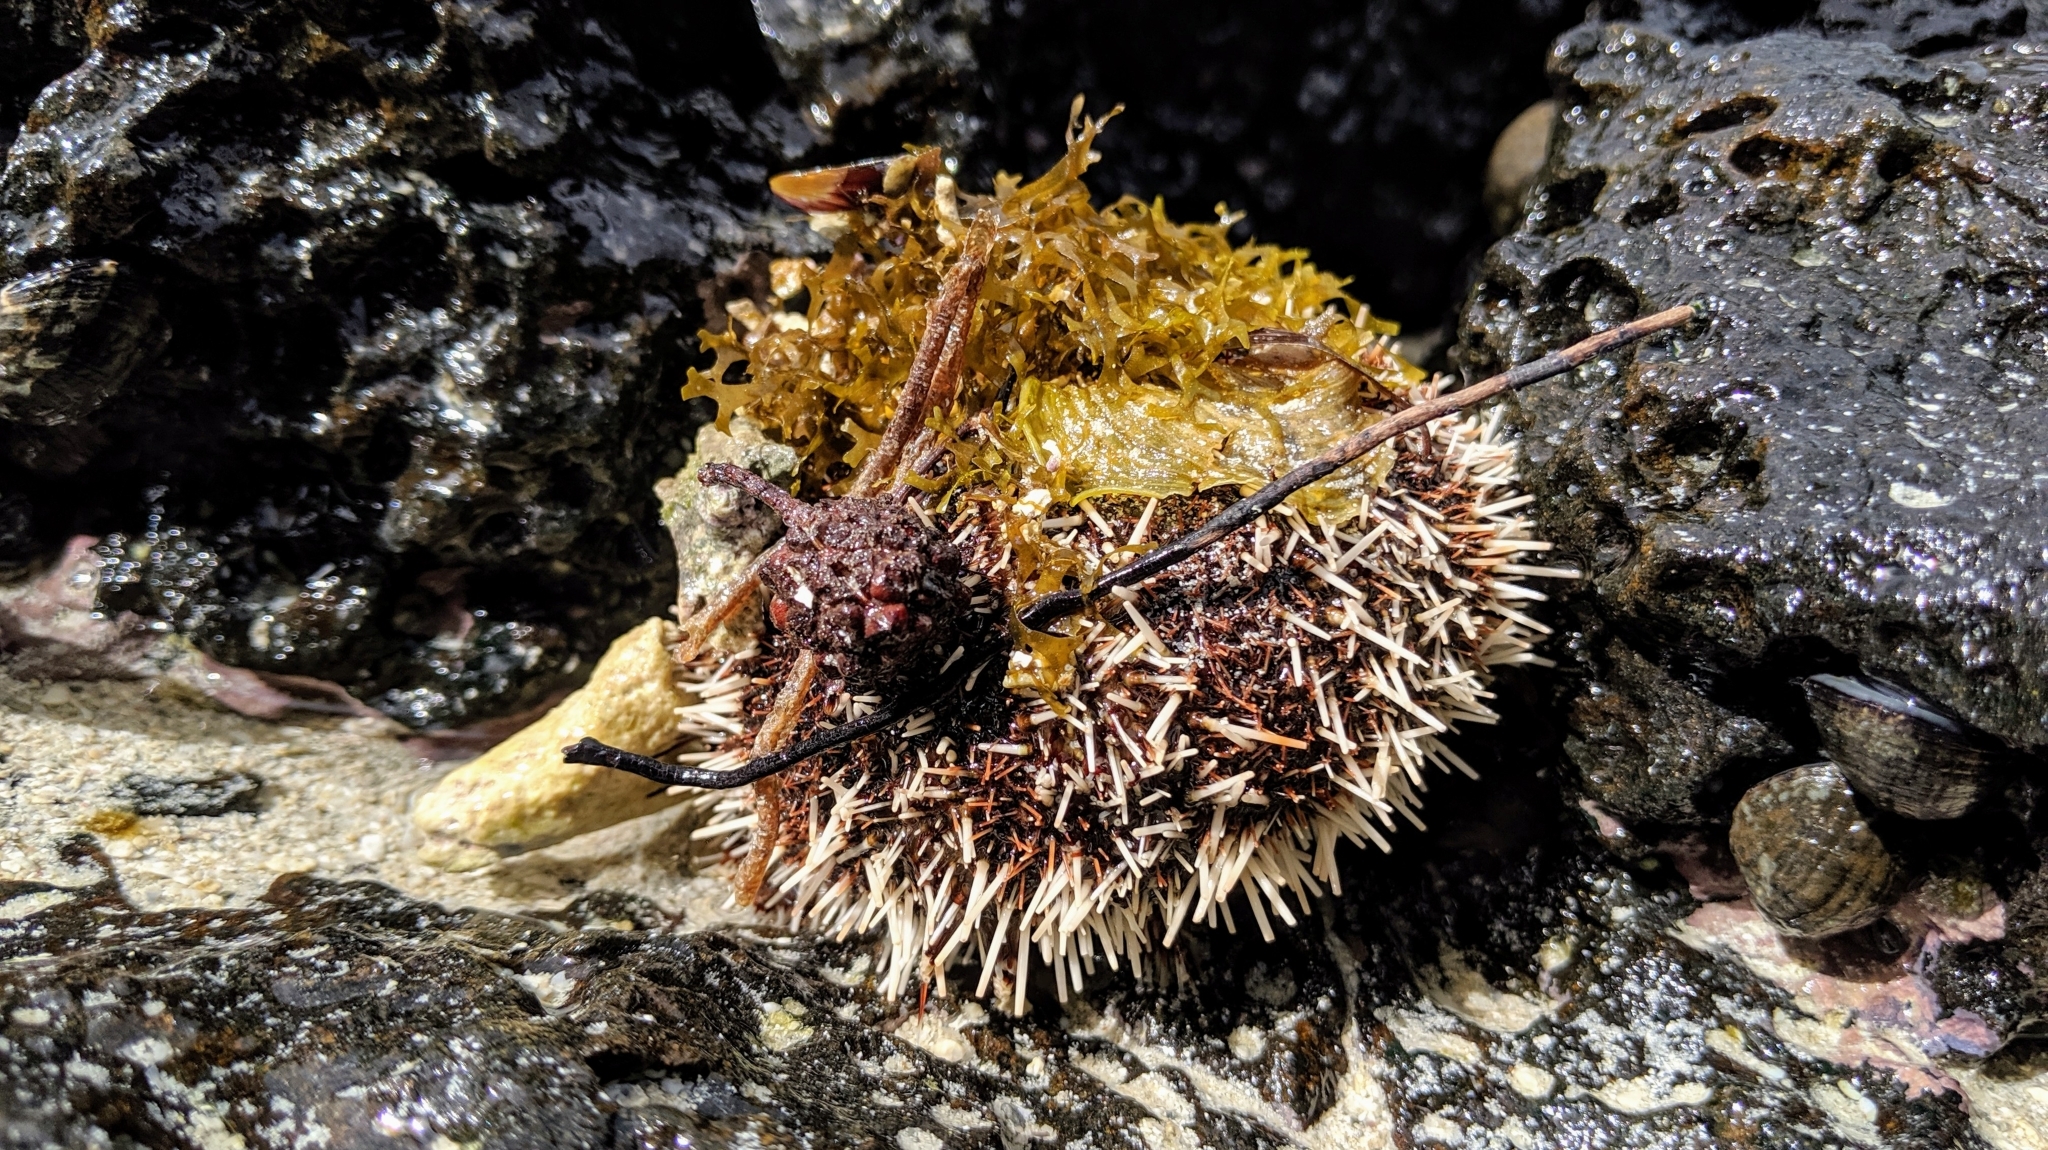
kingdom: Animalia
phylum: Echinodermata
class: Echinoidea
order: Camarodonta
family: Toxopneustidae
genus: Tripneustes
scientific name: Tripneustes gratilla
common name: Bischofsmützenseeigel
